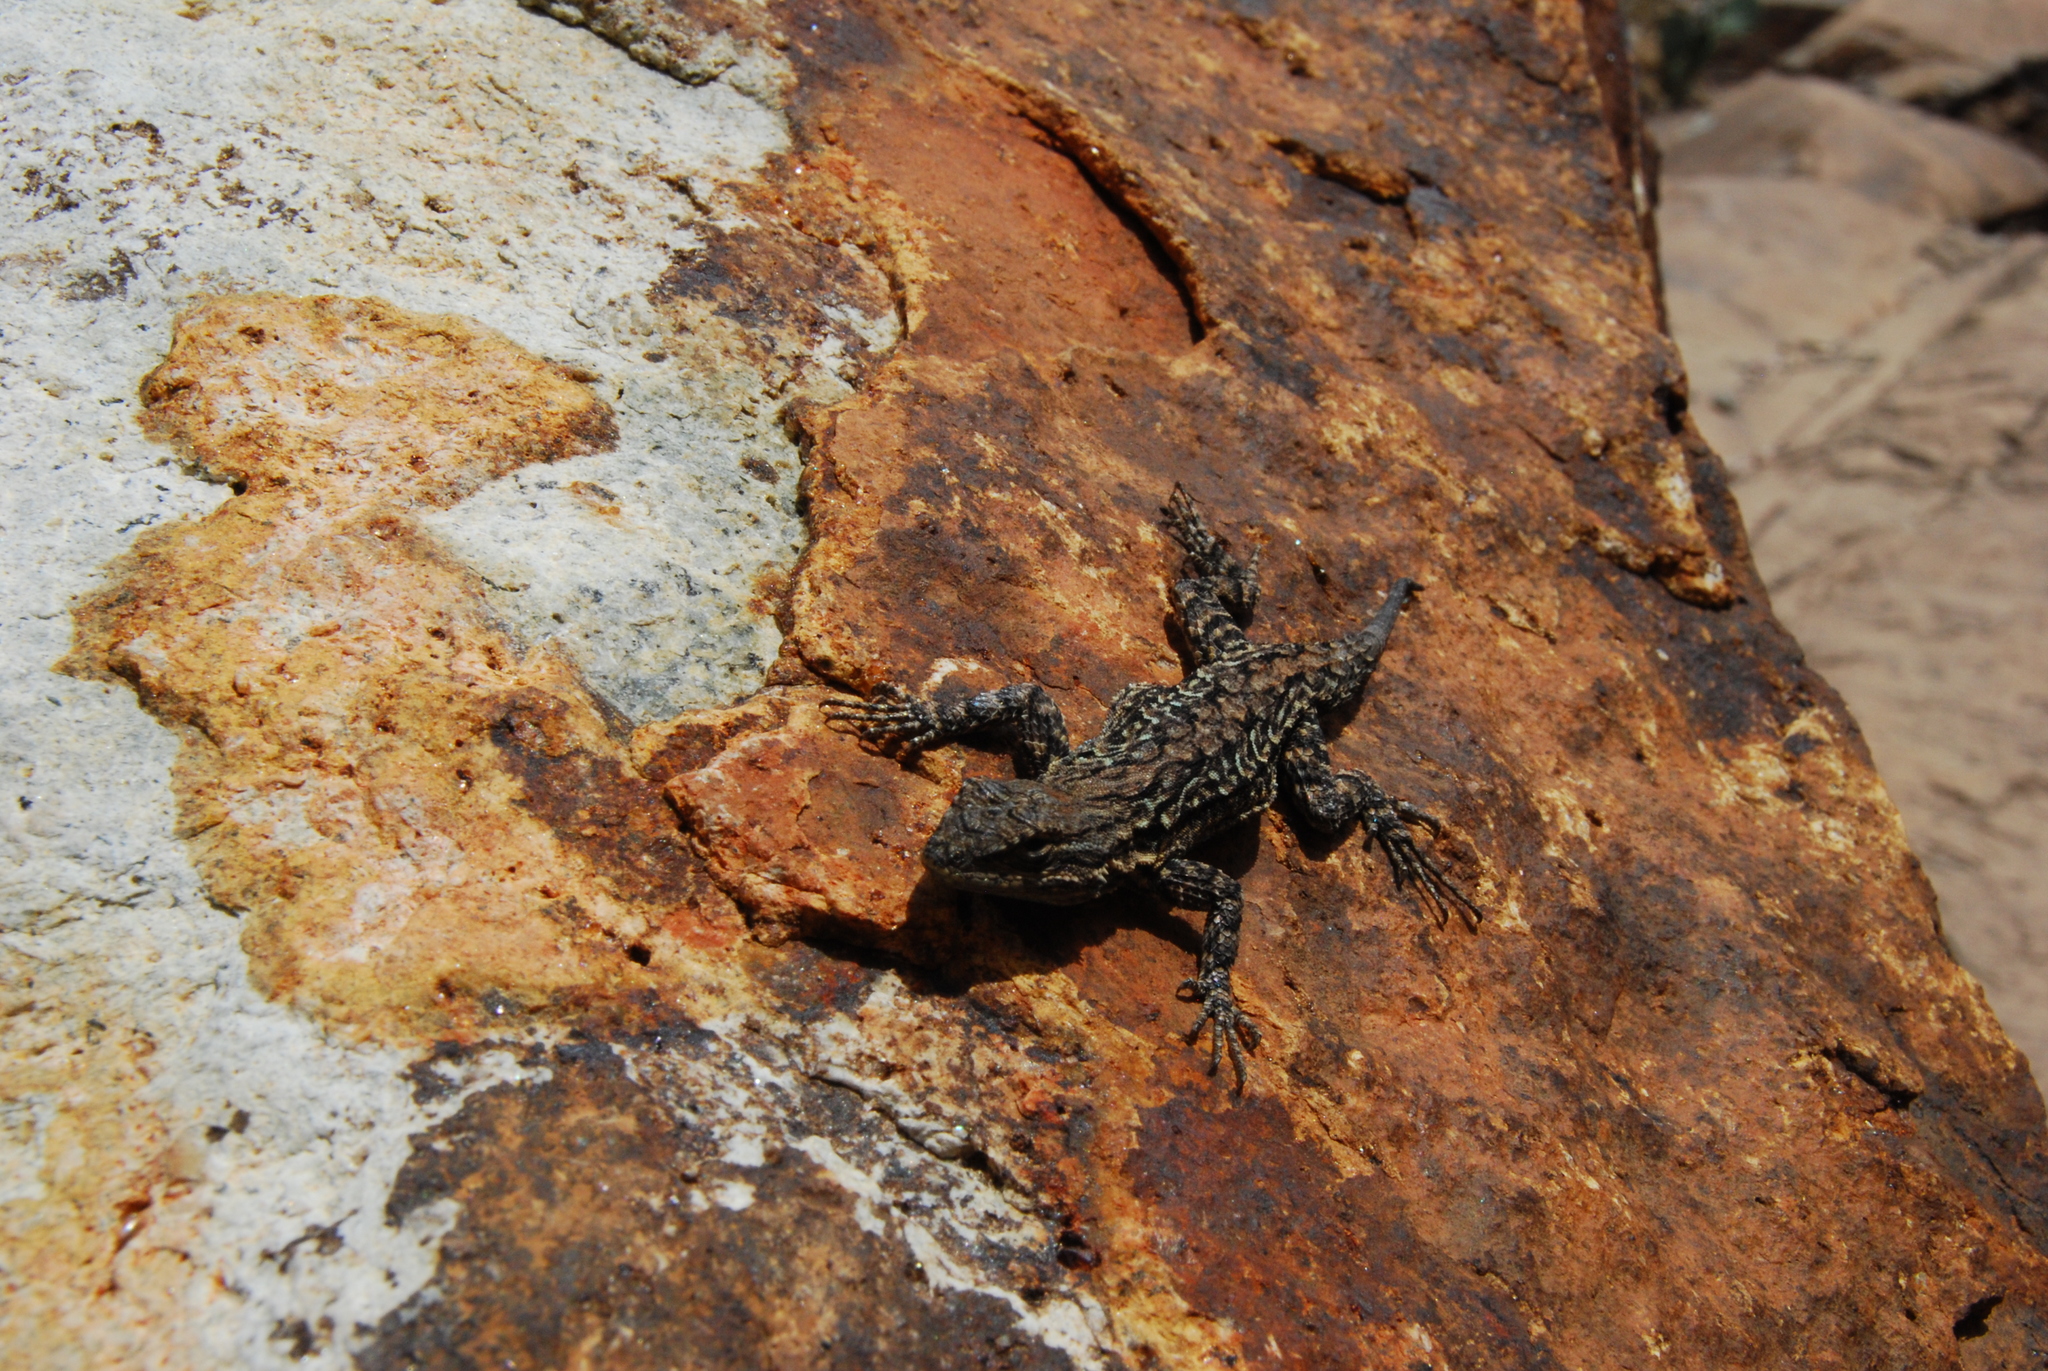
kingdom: Animalia
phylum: Chordata
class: Squamata
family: Phrynosomatidae
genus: Urosaurus
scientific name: Urosaurus ornatus
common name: Ornate tree lizard
